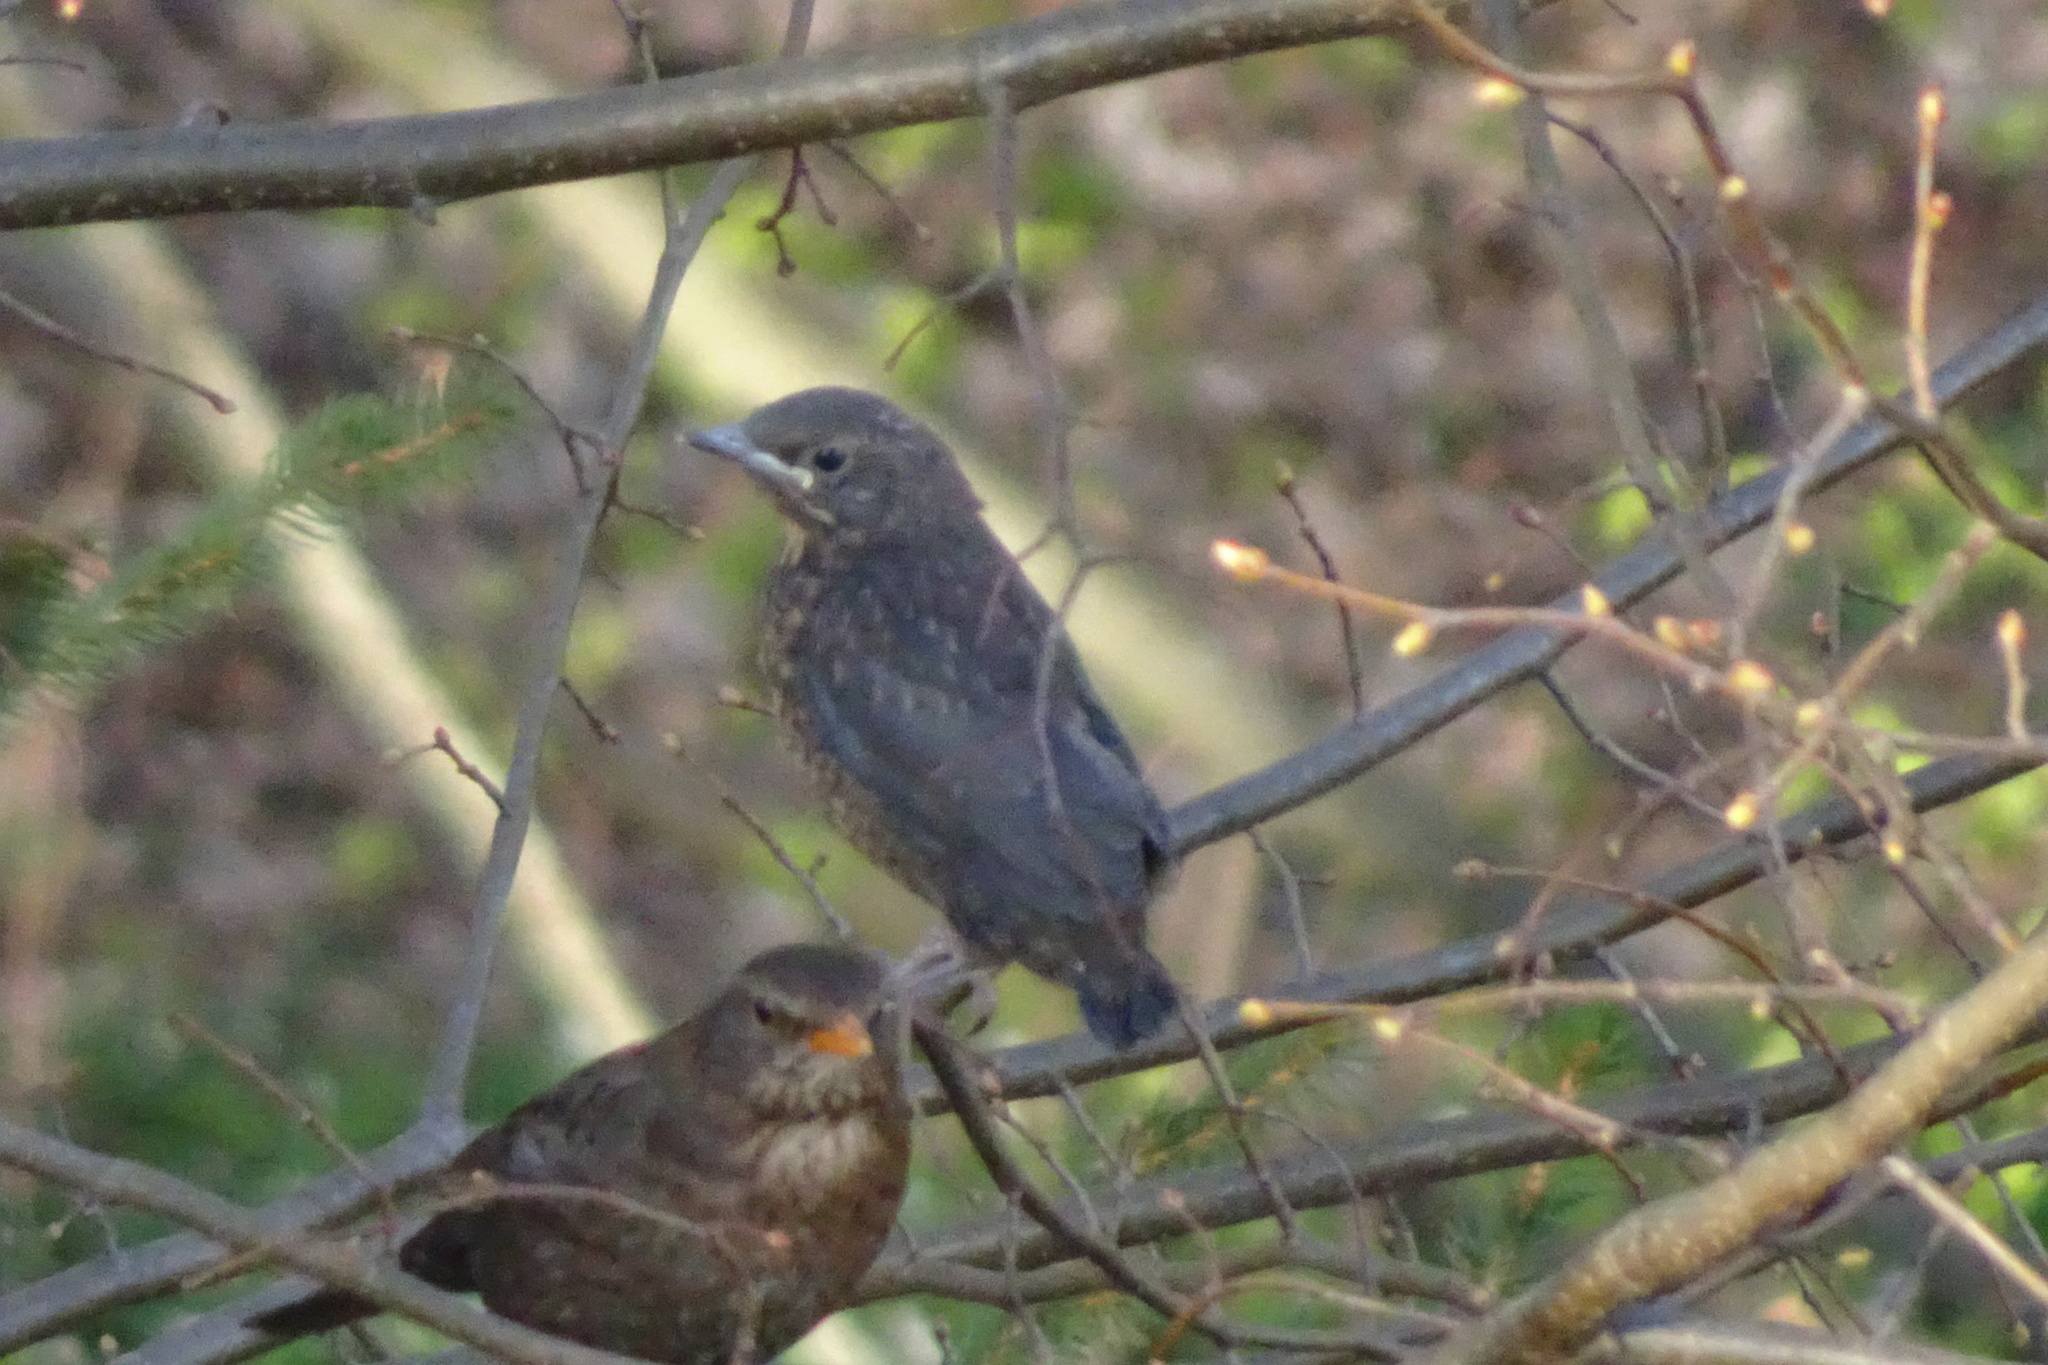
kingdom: Animalia
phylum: Chordata
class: Aves
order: Passeriformes
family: Turdidae
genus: Turdus
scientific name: Turdus merula
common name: Common blackbird
